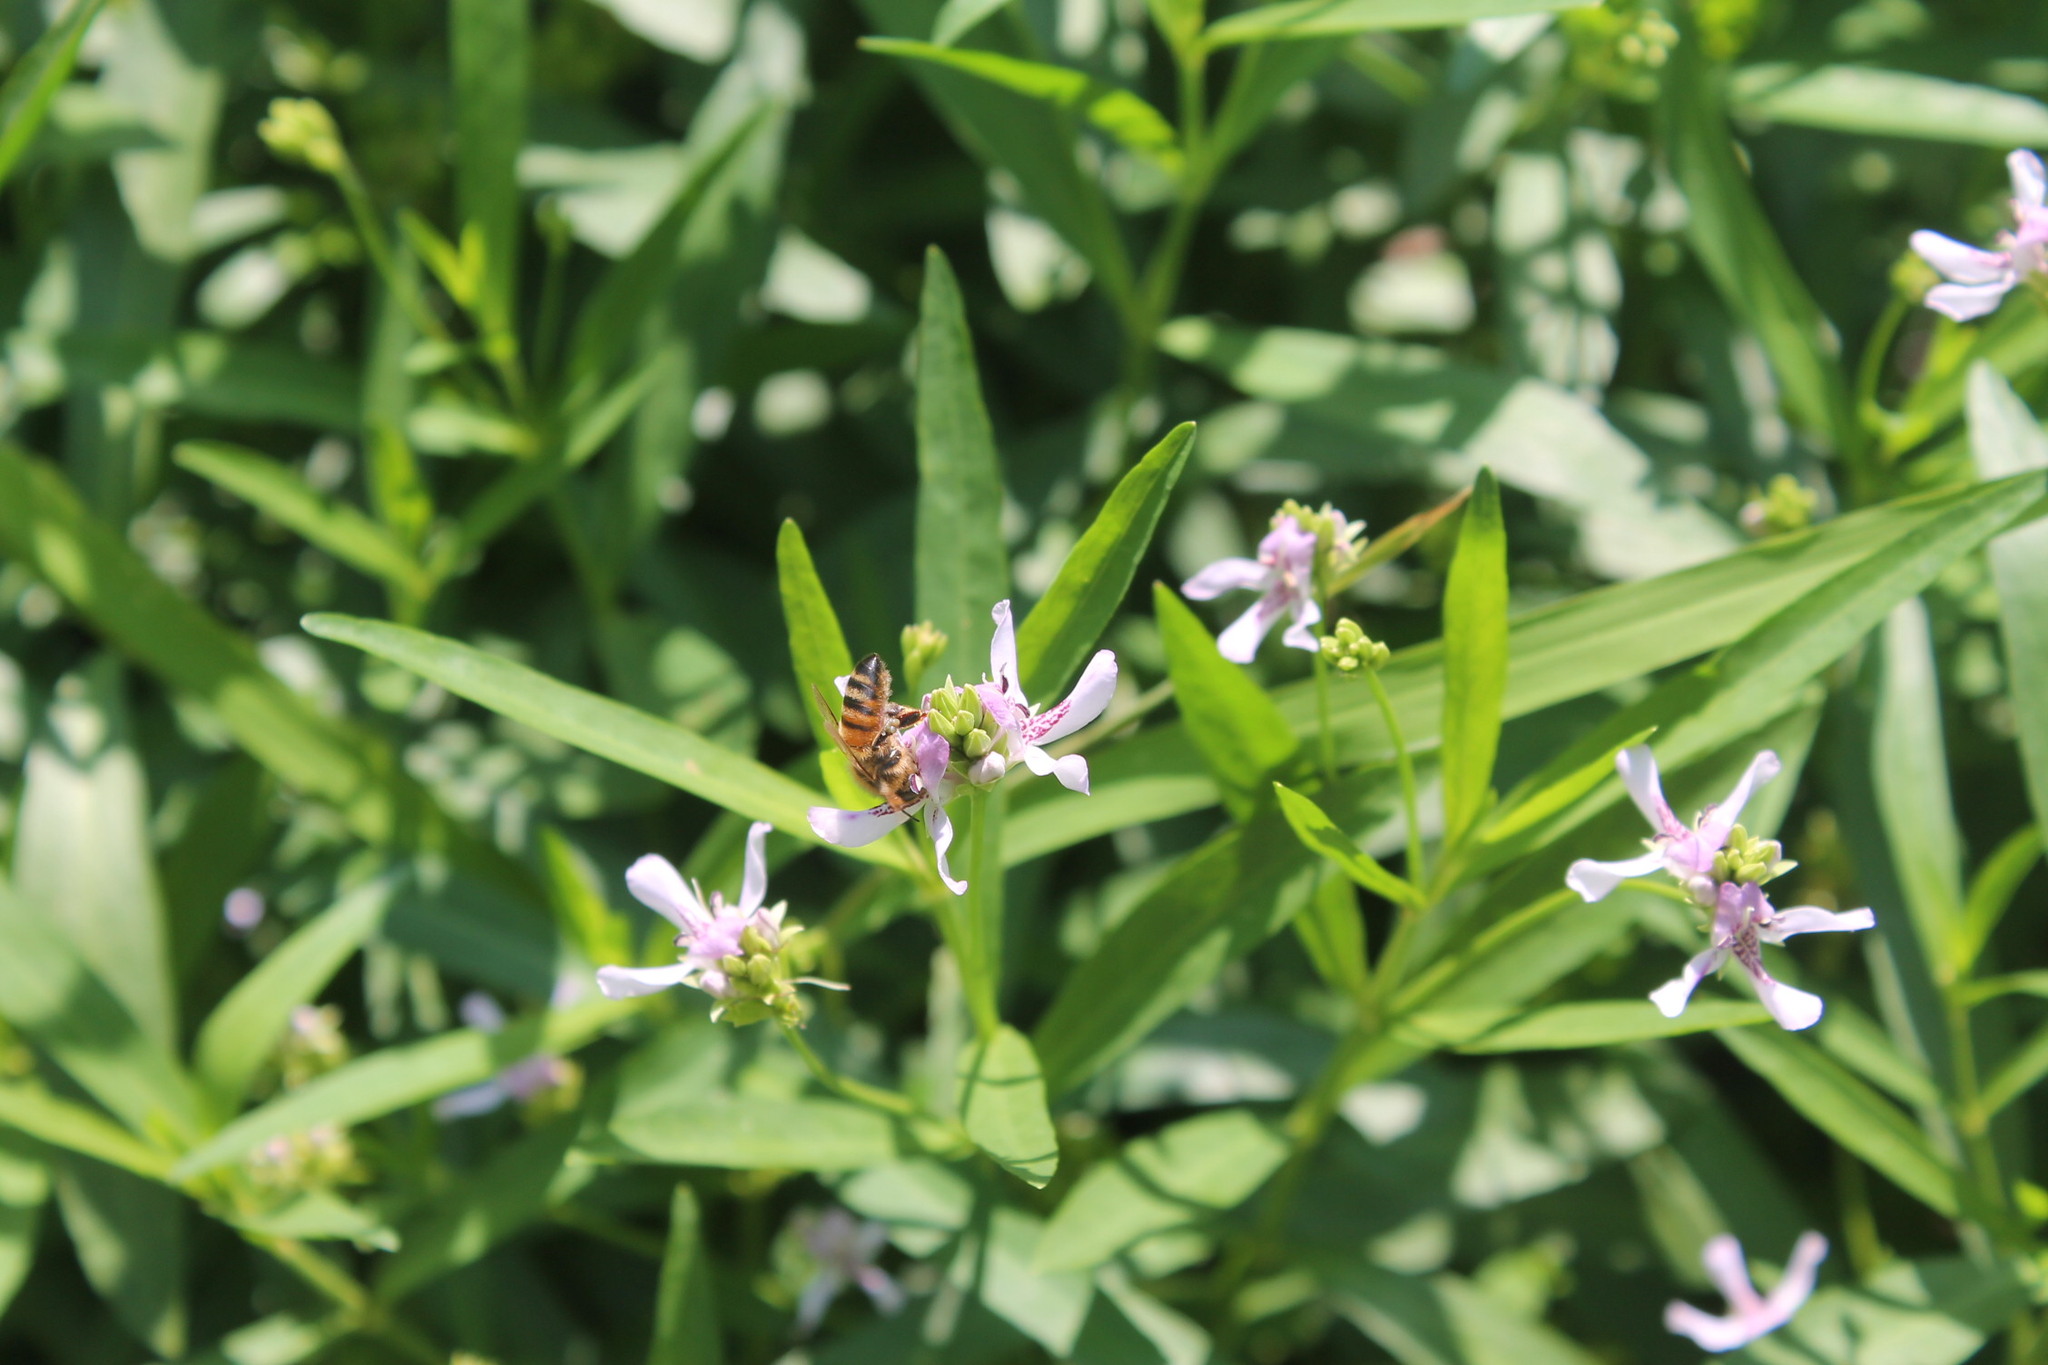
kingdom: Animalia
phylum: Arthropoda
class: Insecta
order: Hymenoptera
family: Apidae
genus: Apis
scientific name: Apis mellifera
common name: Honey bee
